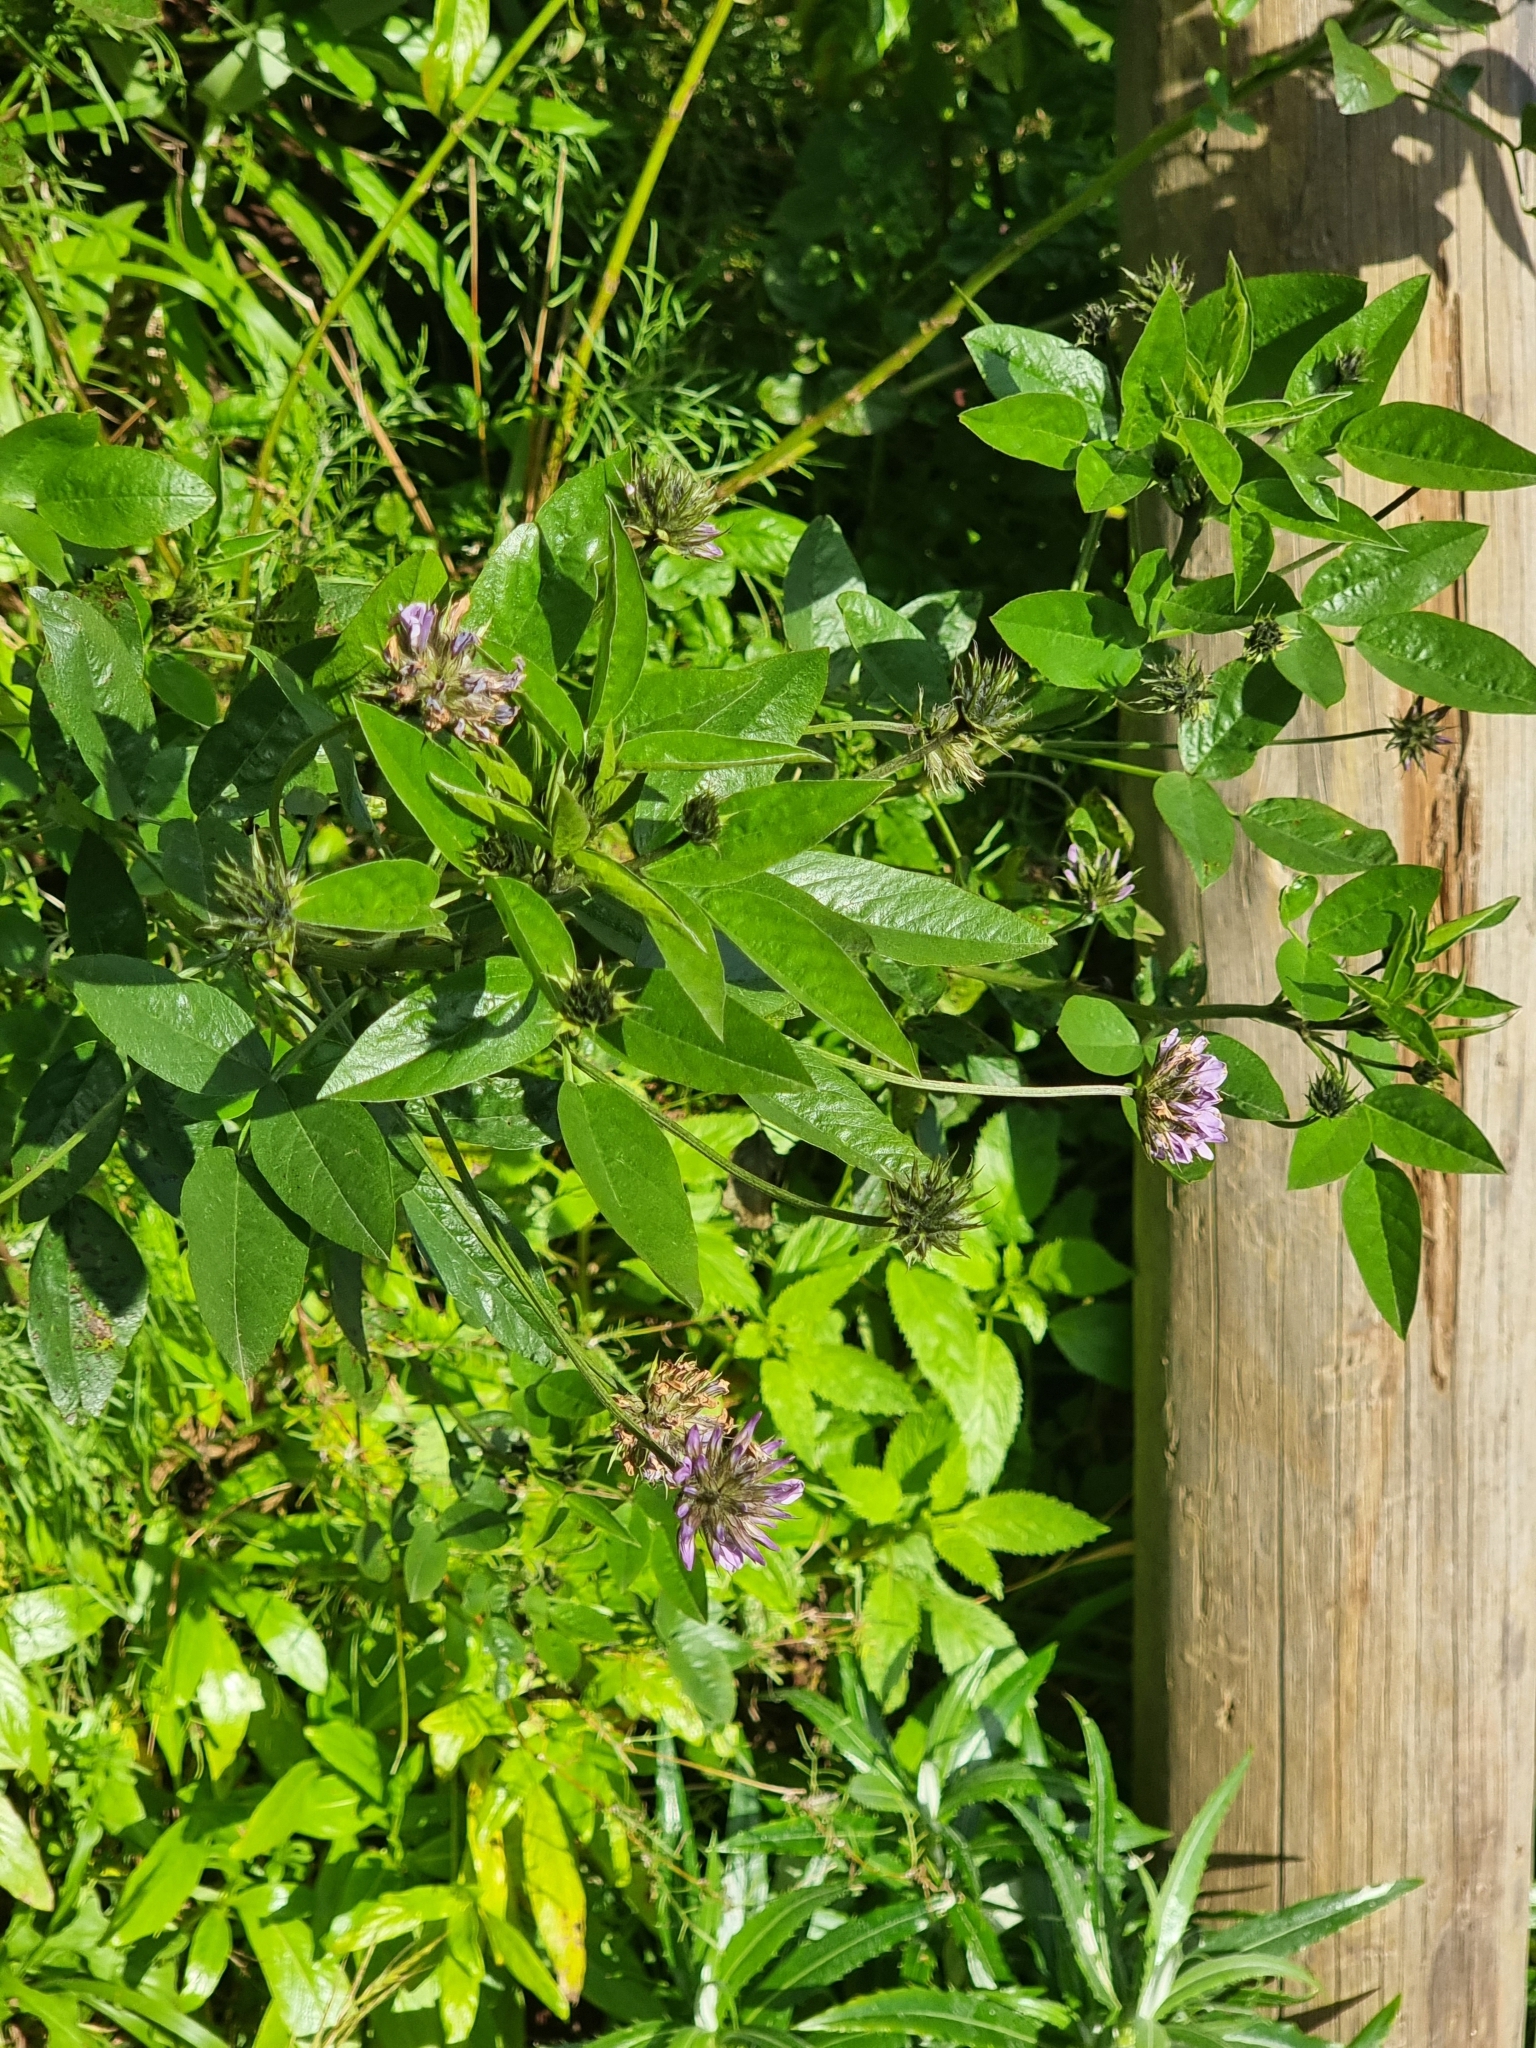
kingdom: Plantae
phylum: Tracheophyta
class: Magnoliopsida
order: Fabales
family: Fabaceae
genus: Bituminaria
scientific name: Bituminaria bituminosa
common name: Arabian pea
